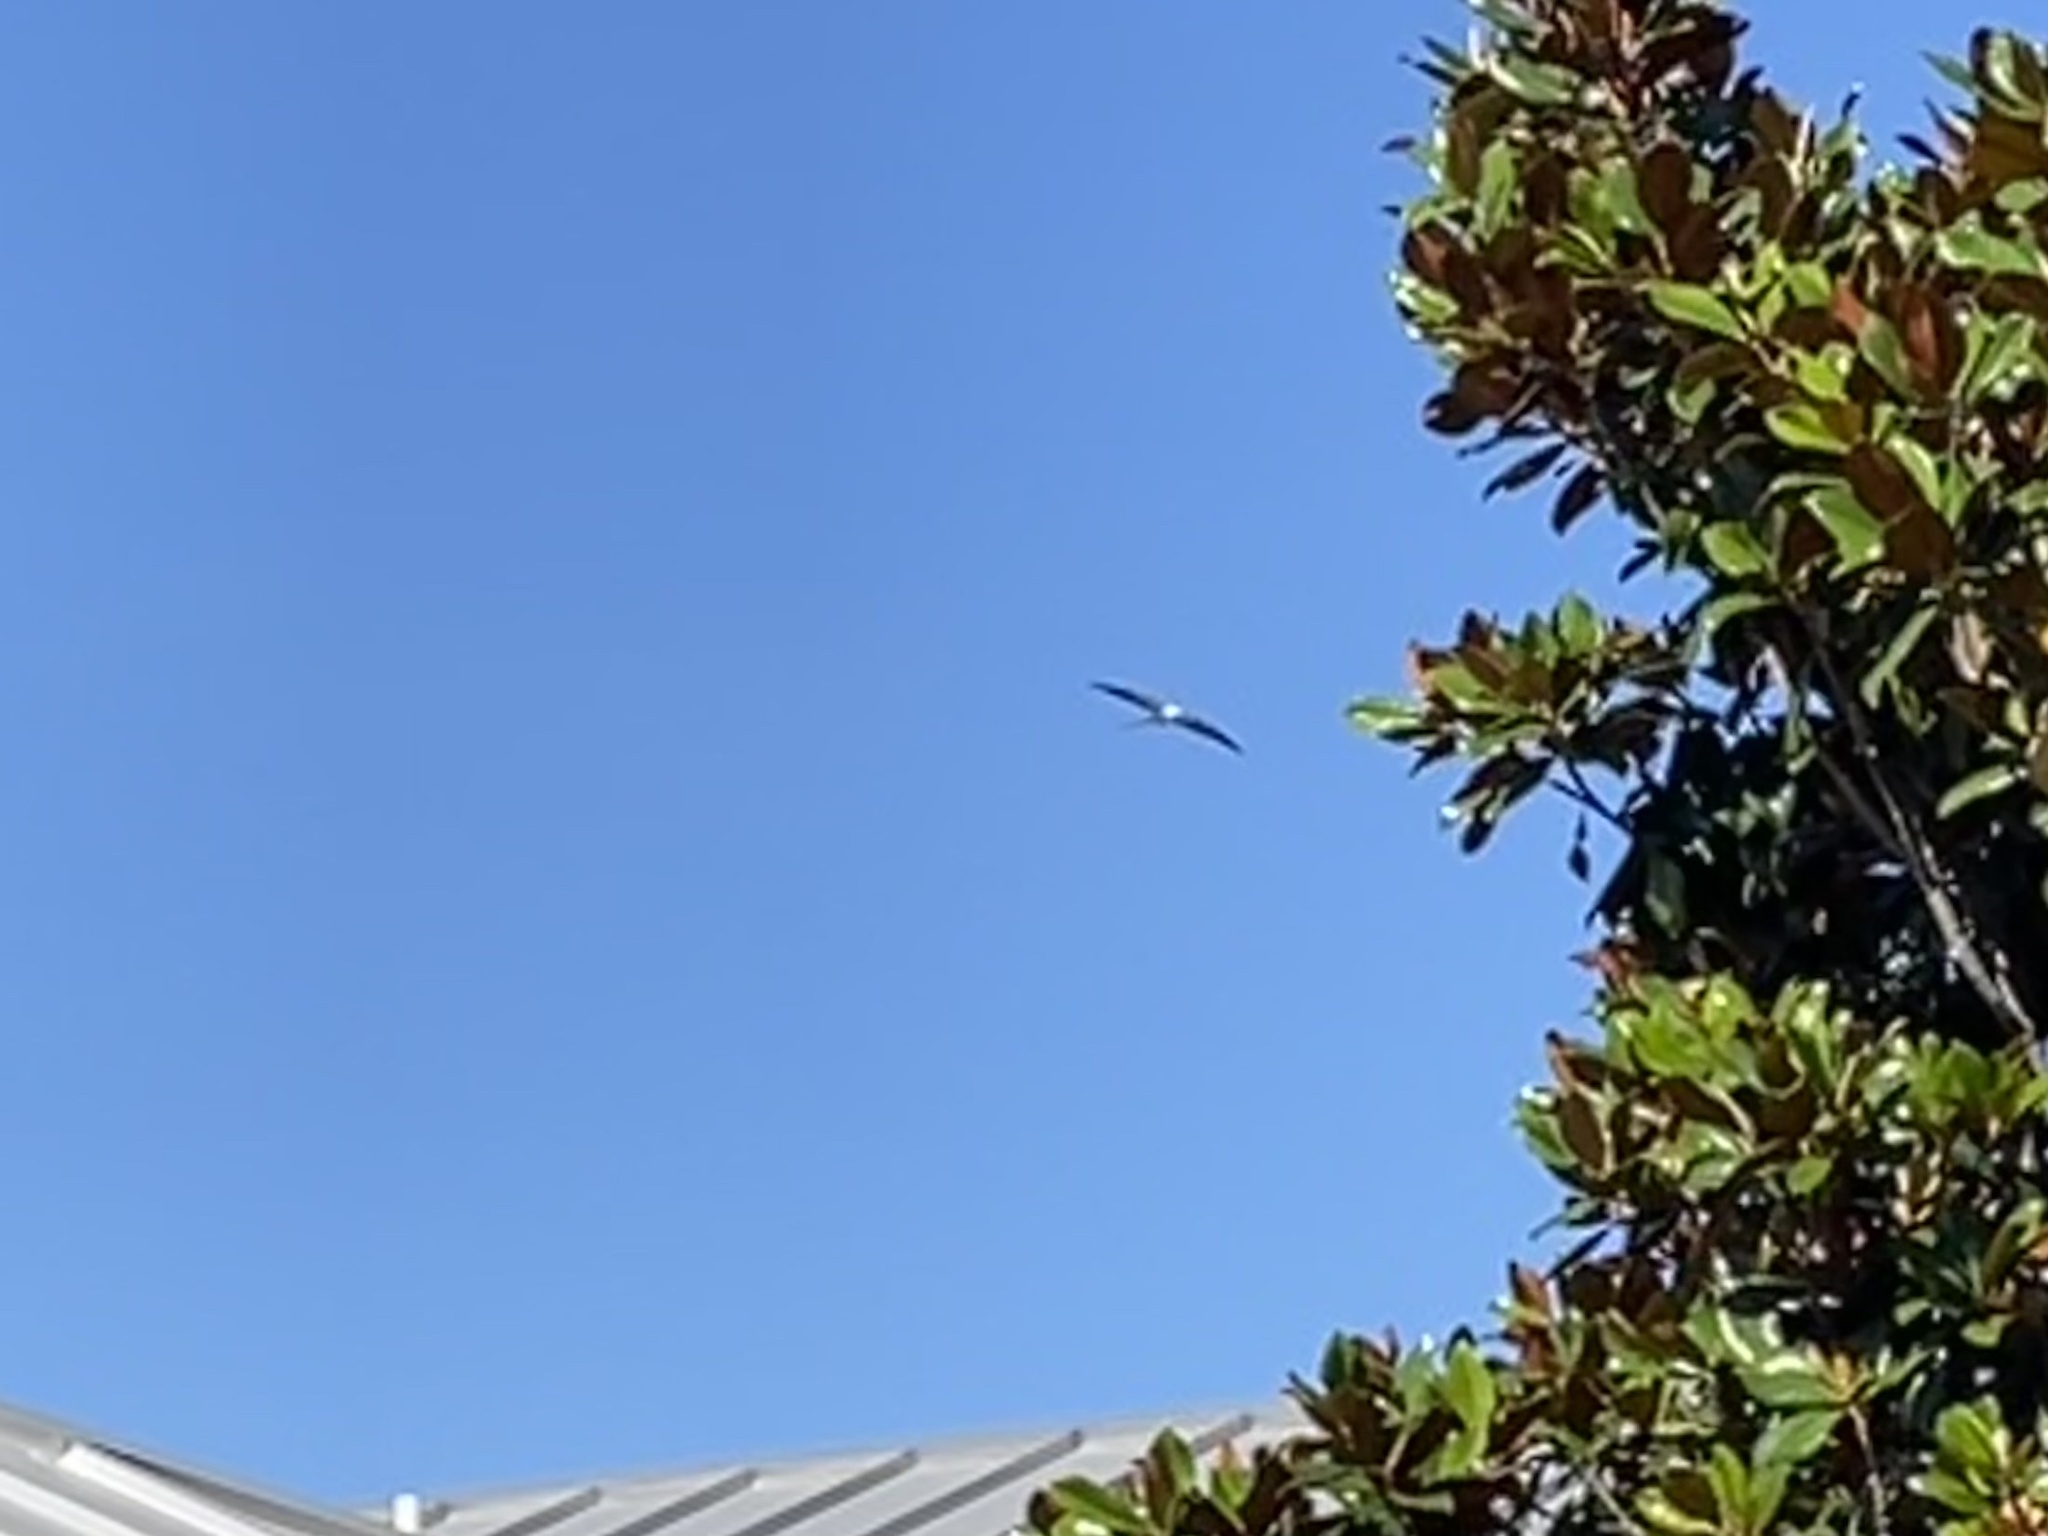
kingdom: Animalia
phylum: Chordata
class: Aves
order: Accipitriformes
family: Accipitridae
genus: Elanoides
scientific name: Elanoides forficatus
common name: Swallow-tailed kite
